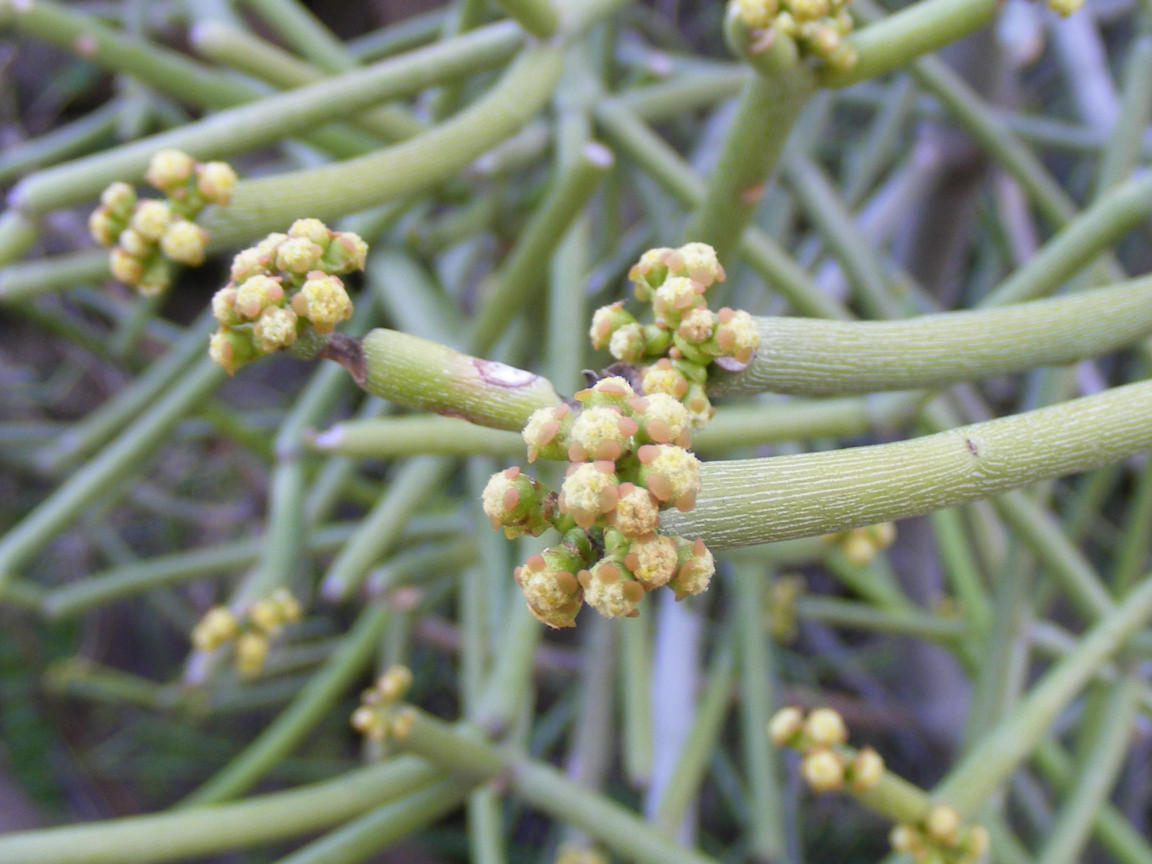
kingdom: Plantae
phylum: Tracheophyta
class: Magnoliopsida
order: Malpighiales
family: Euphorbiaceae
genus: Euphorbia
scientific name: Euphorbia tirucalli
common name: Indiantree spurge
